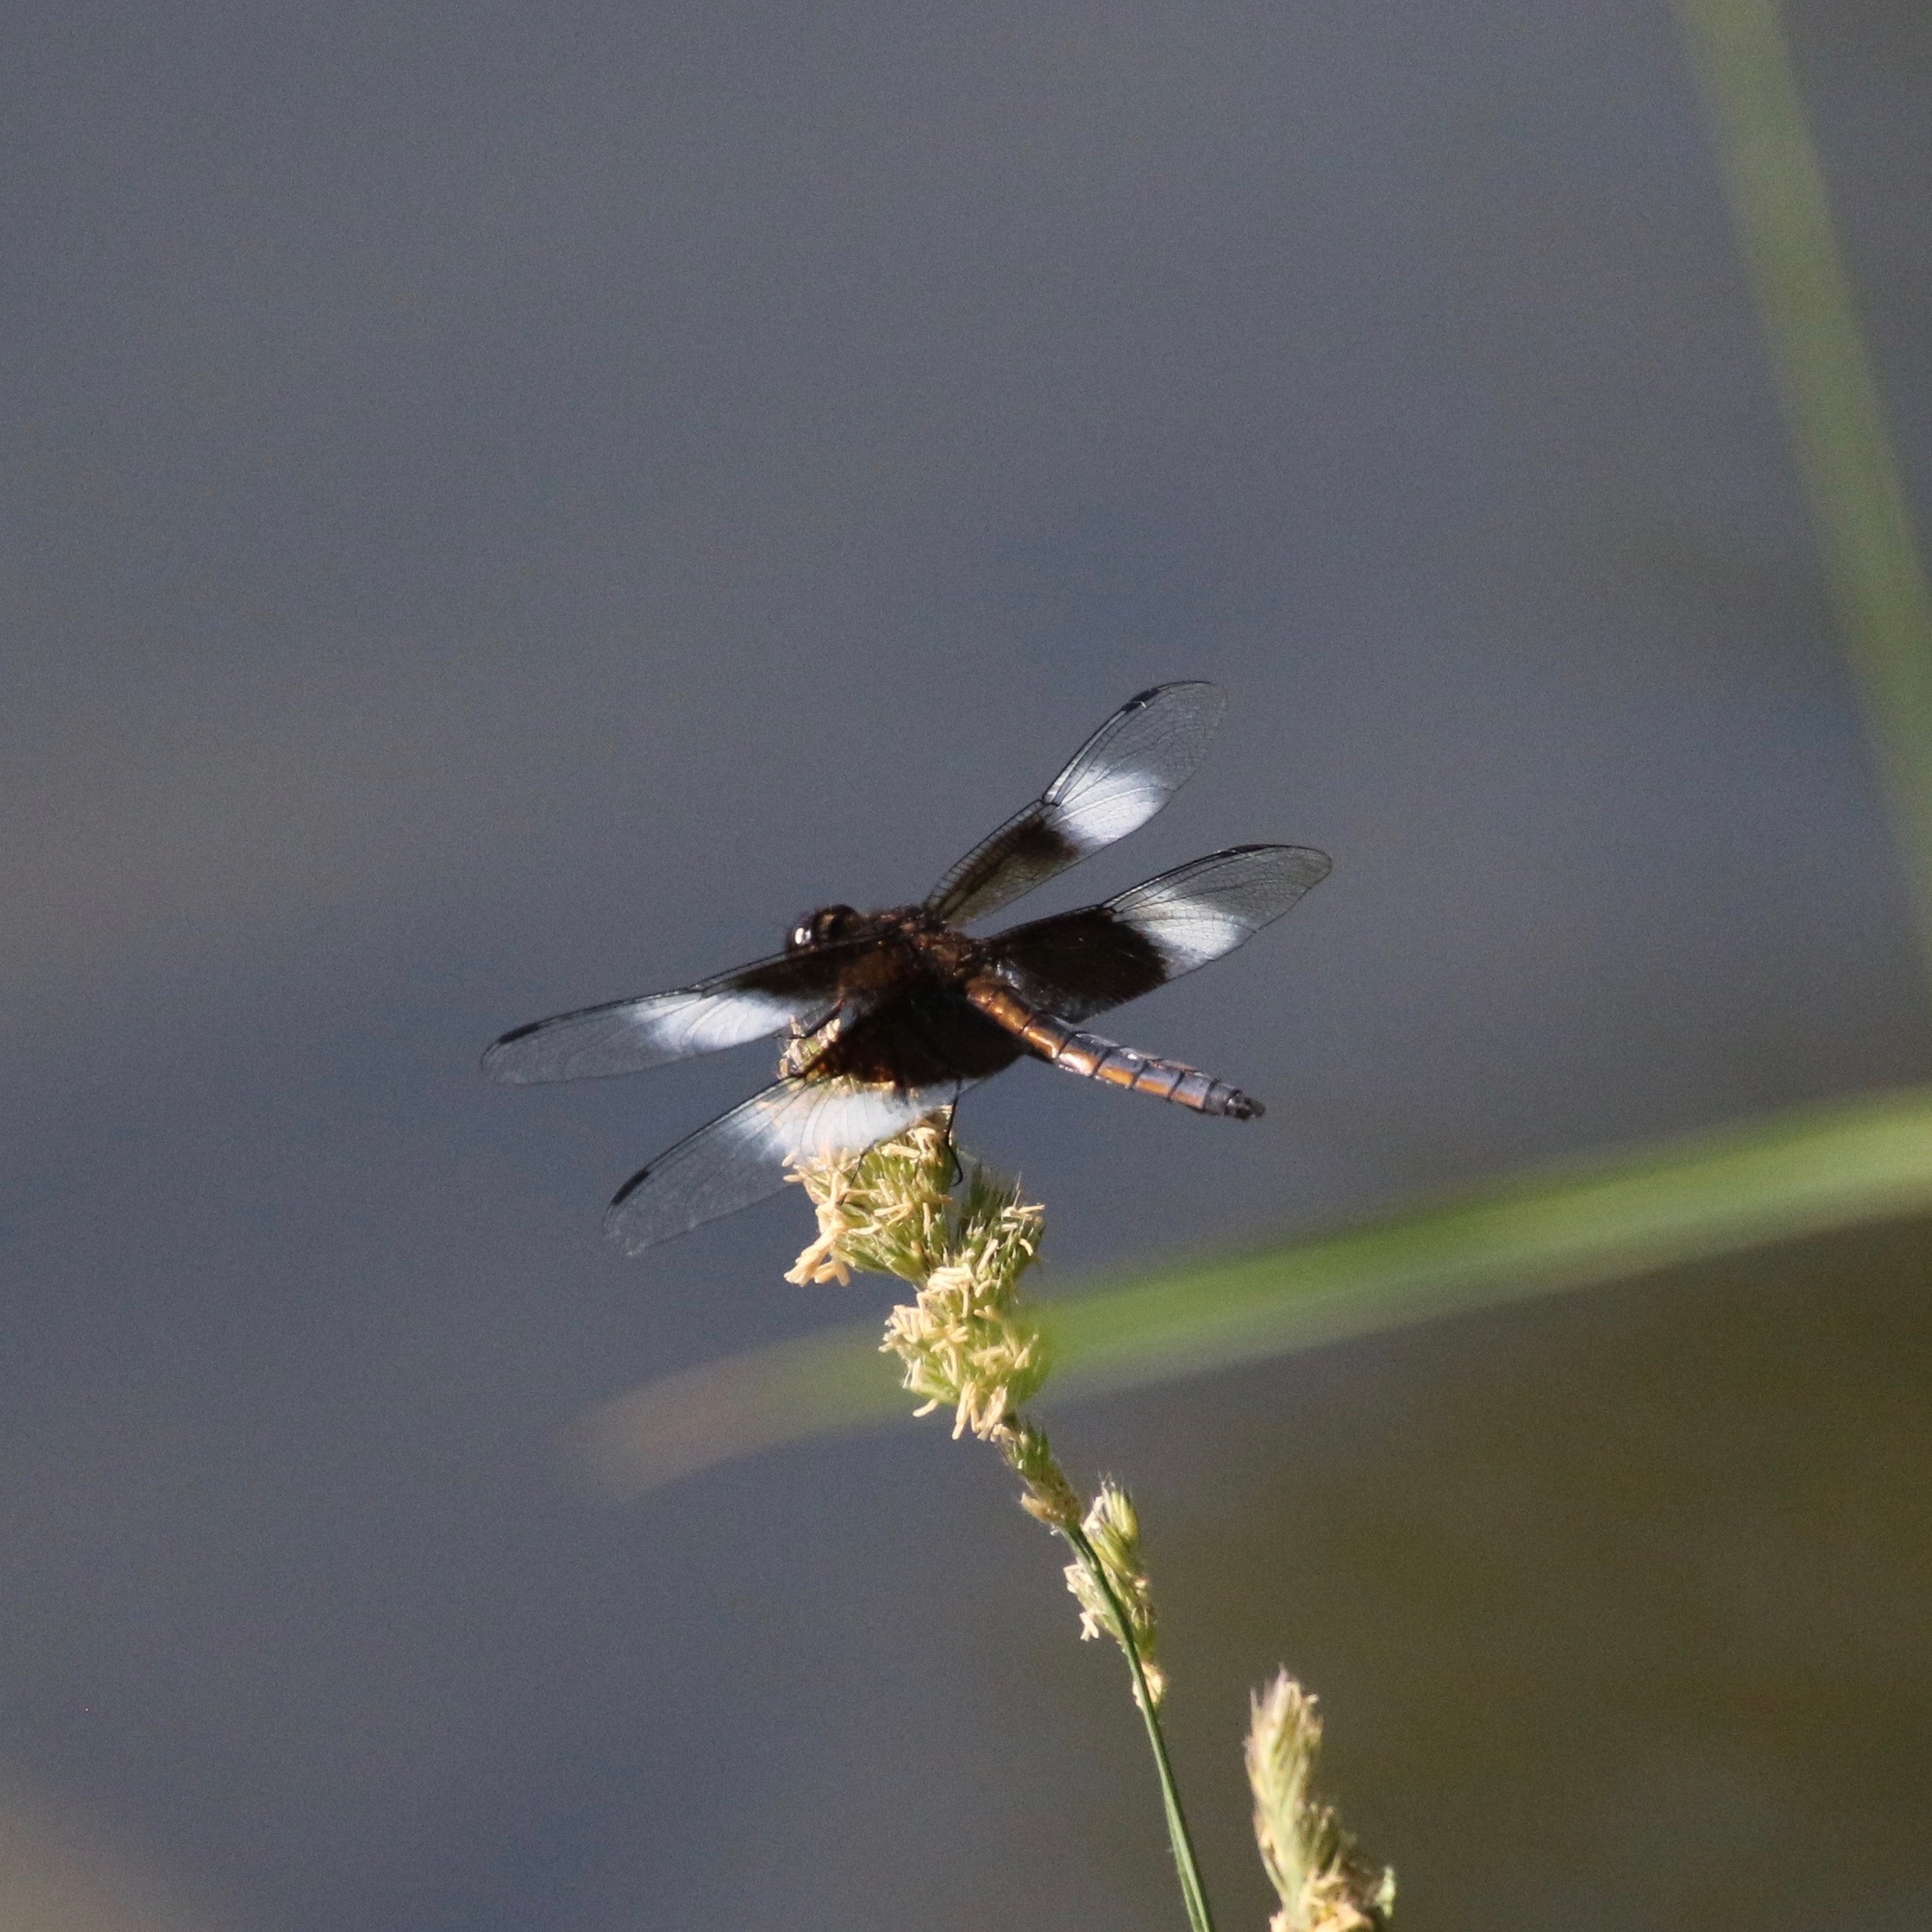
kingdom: Animalia
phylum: Arthropoda
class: Insecta
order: Odonata
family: Libellulidae
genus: Libellula
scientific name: Libellula luctuosa
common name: Widow skimmer
